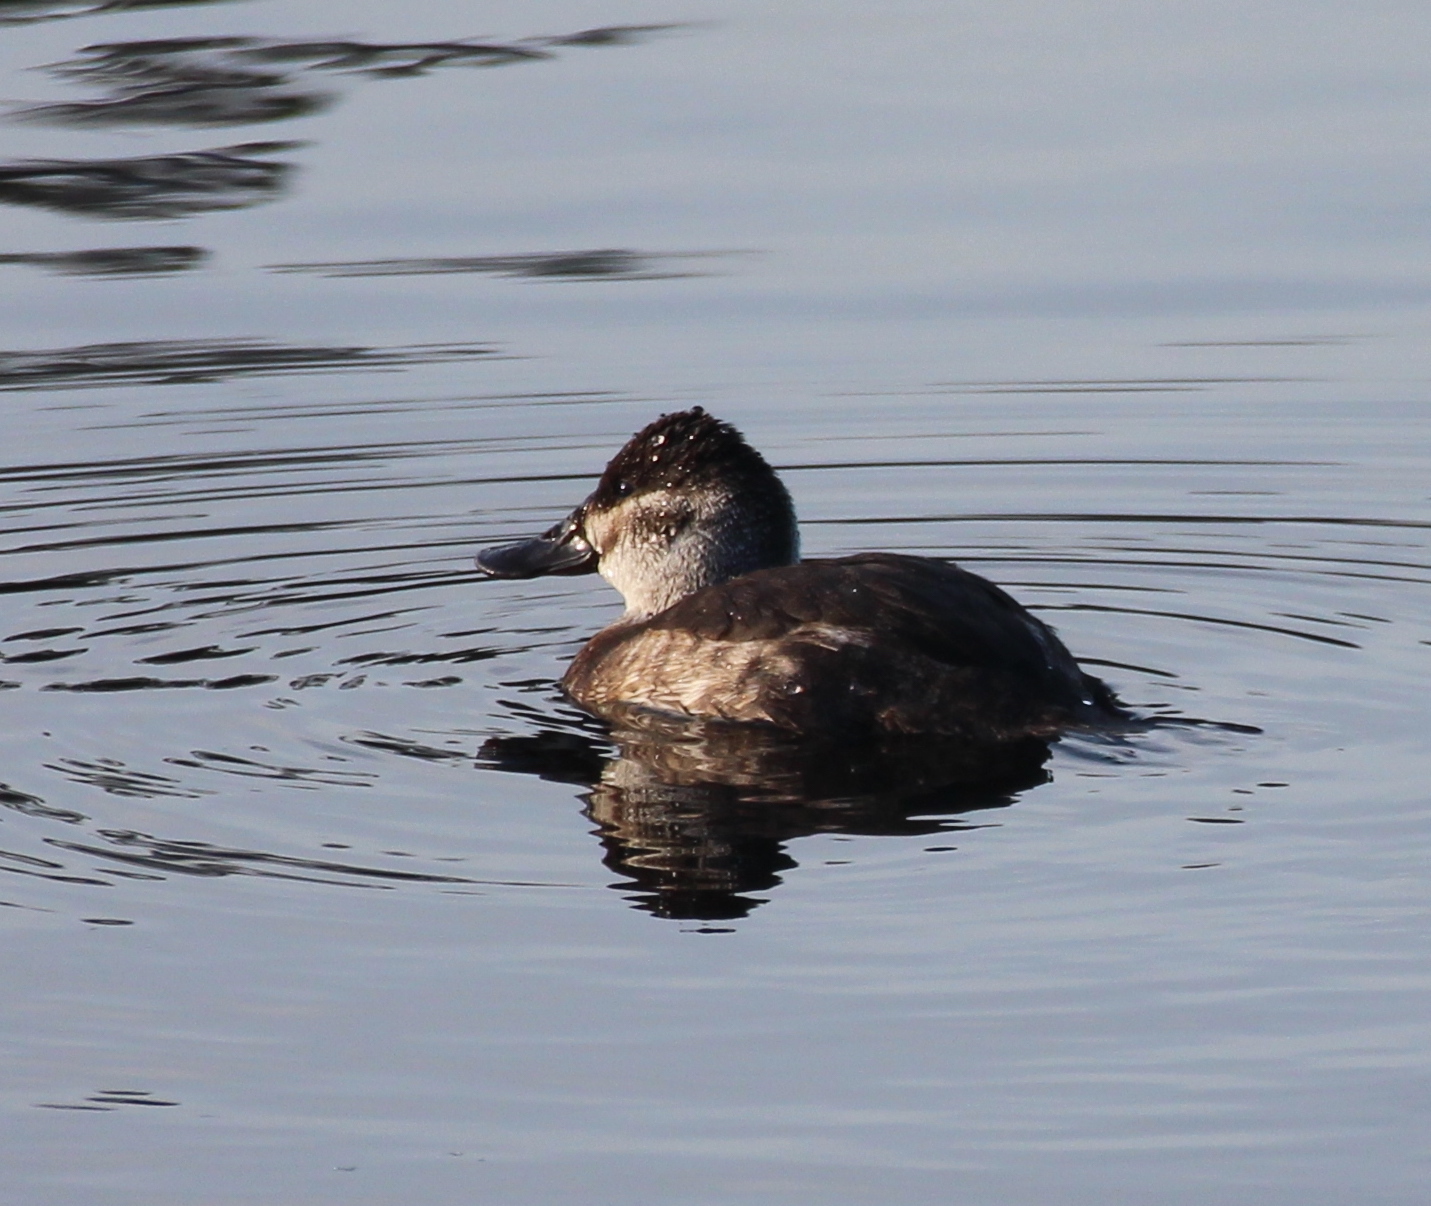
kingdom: Animalia
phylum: Chordata
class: Aves
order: Anseriformes
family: Anatidae
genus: Oxyura
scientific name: Oxyura jamaicensis
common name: Ruddy duck
